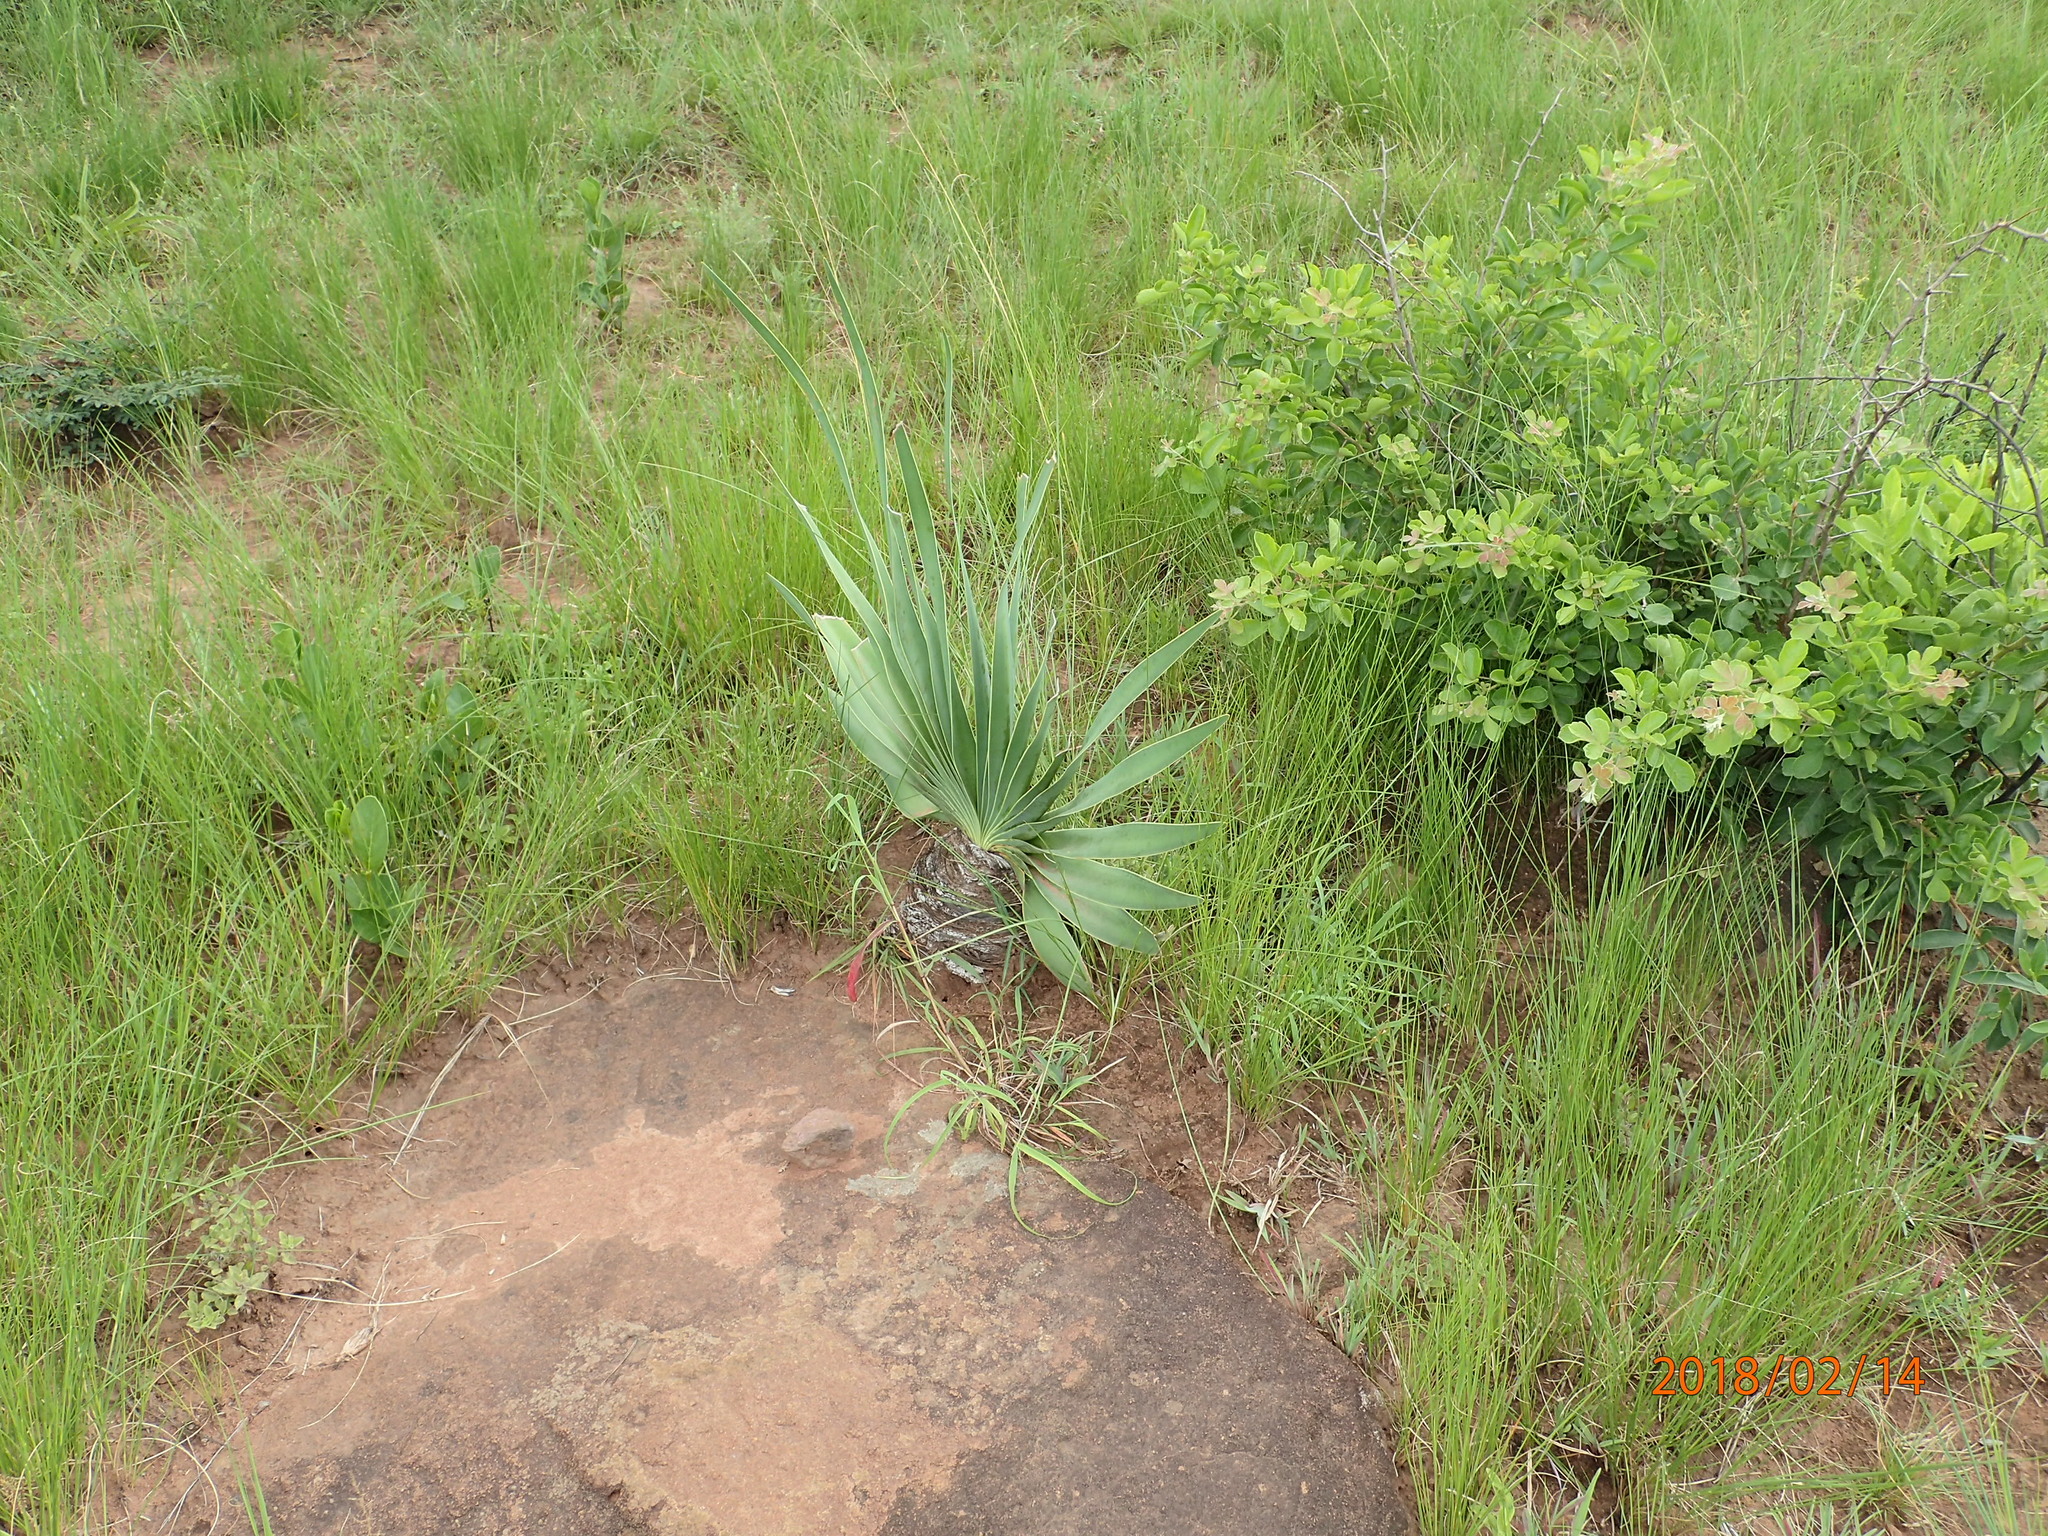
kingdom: Plantae
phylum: Tracheophyta
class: Liliopsida
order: Asparagales
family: Amaryllidaceae
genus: Boophone
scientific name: Boophone disticha
